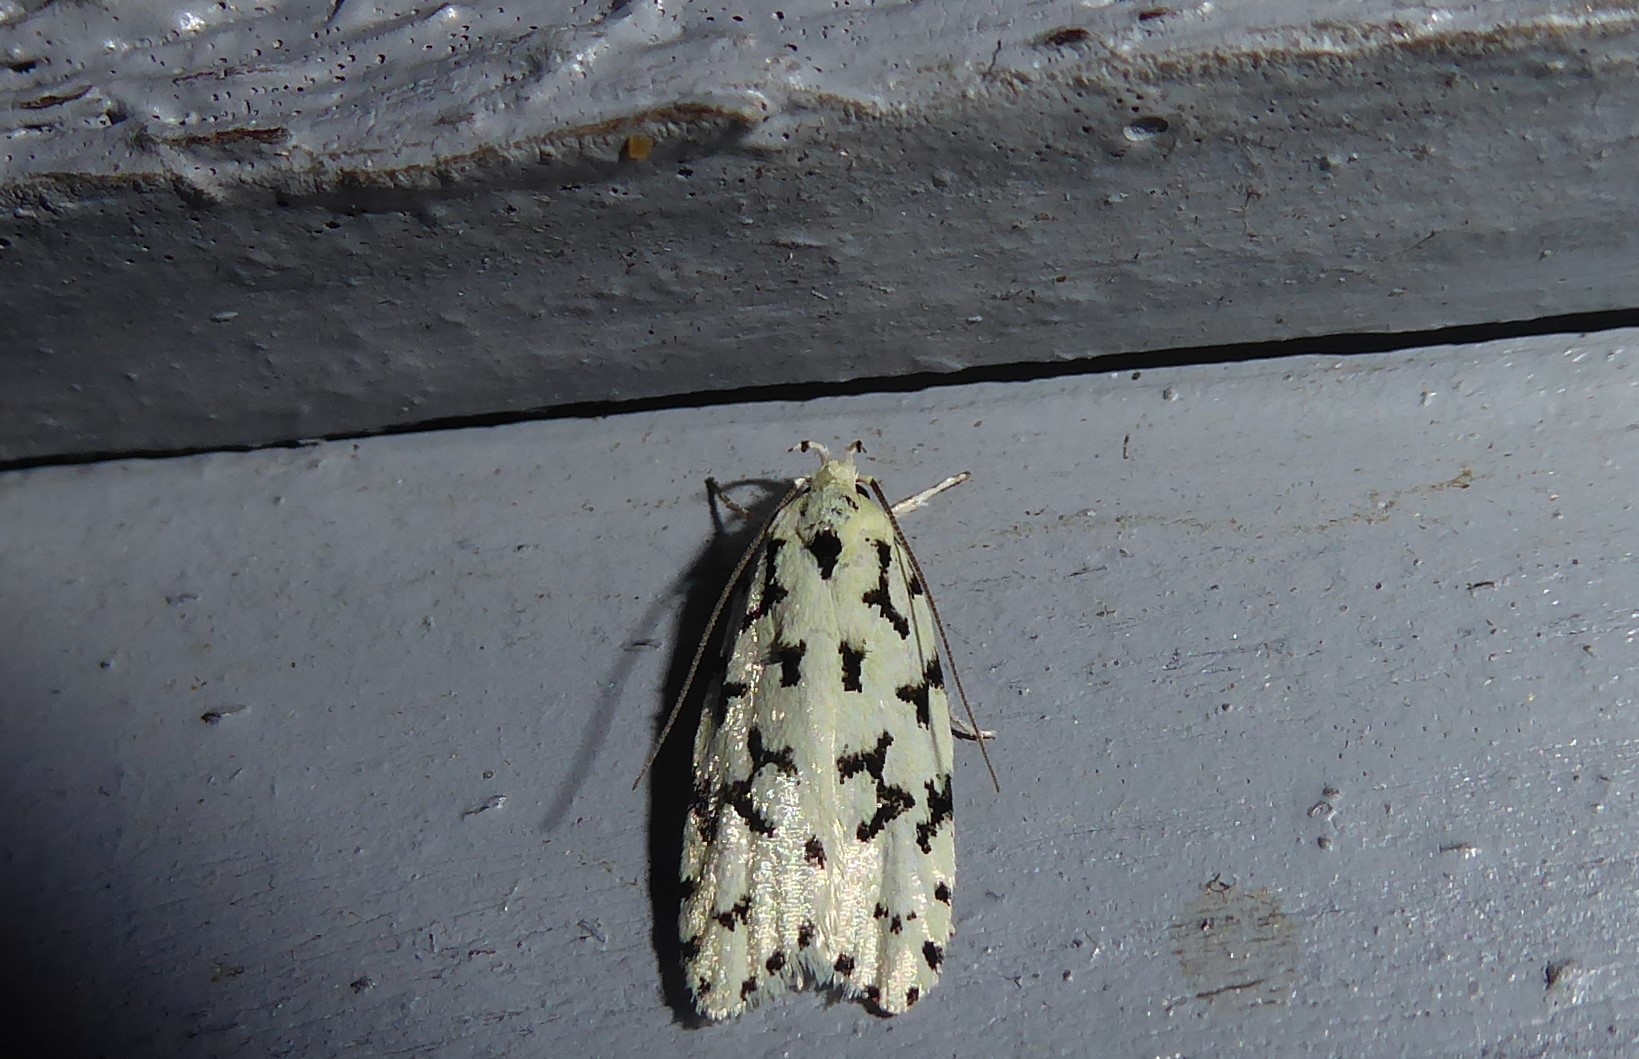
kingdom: Animalia
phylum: Arthropoda
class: Insecta
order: Lepidoptera
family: Oecophoridae
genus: Izatha
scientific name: Izatha huttoni
